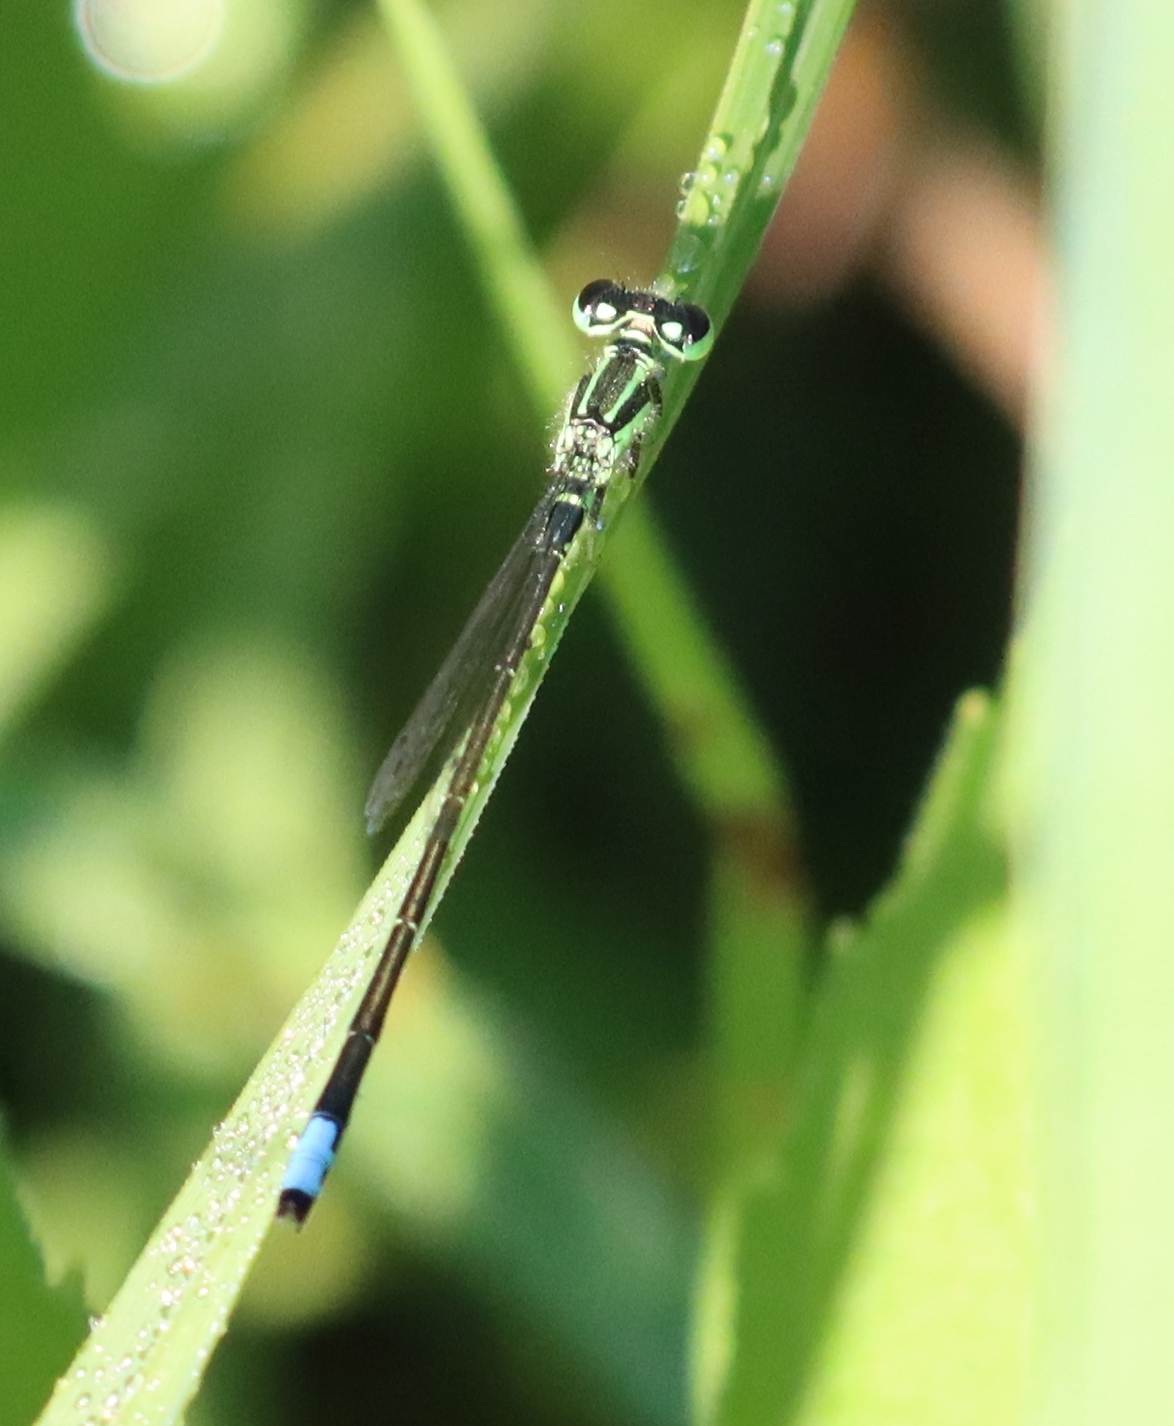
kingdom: Animalia
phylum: Arthropoda
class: Insecta
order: Odonata
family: Coenagrionidae
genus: Ischnura
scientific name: Ischnura verticalis
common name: Eastern forktail
